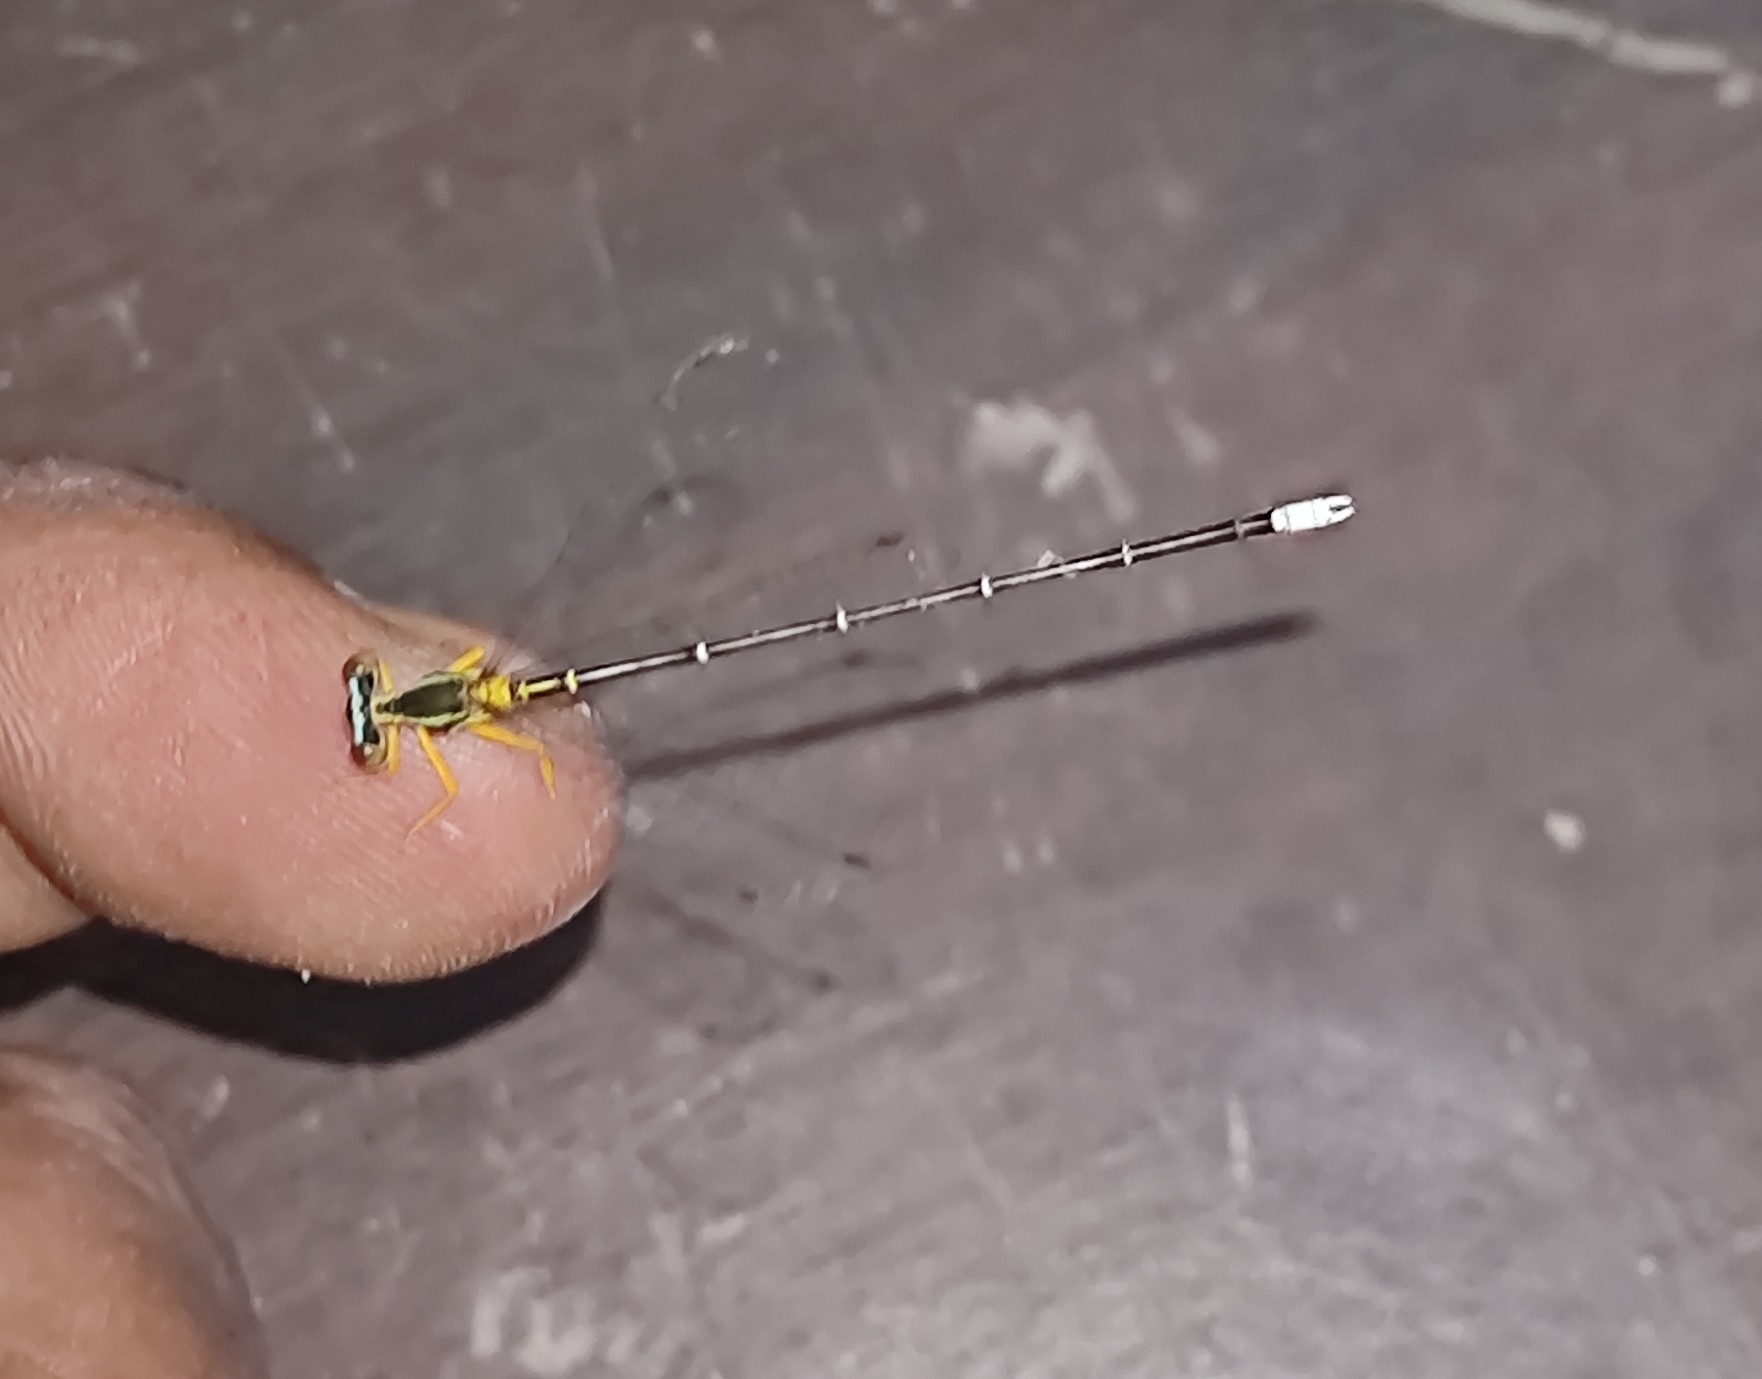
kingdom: Animalia
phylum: Arthropoda
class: Insecta
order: Odonata
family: Platycnemididae
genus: Copera
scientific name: Copera marginipes
